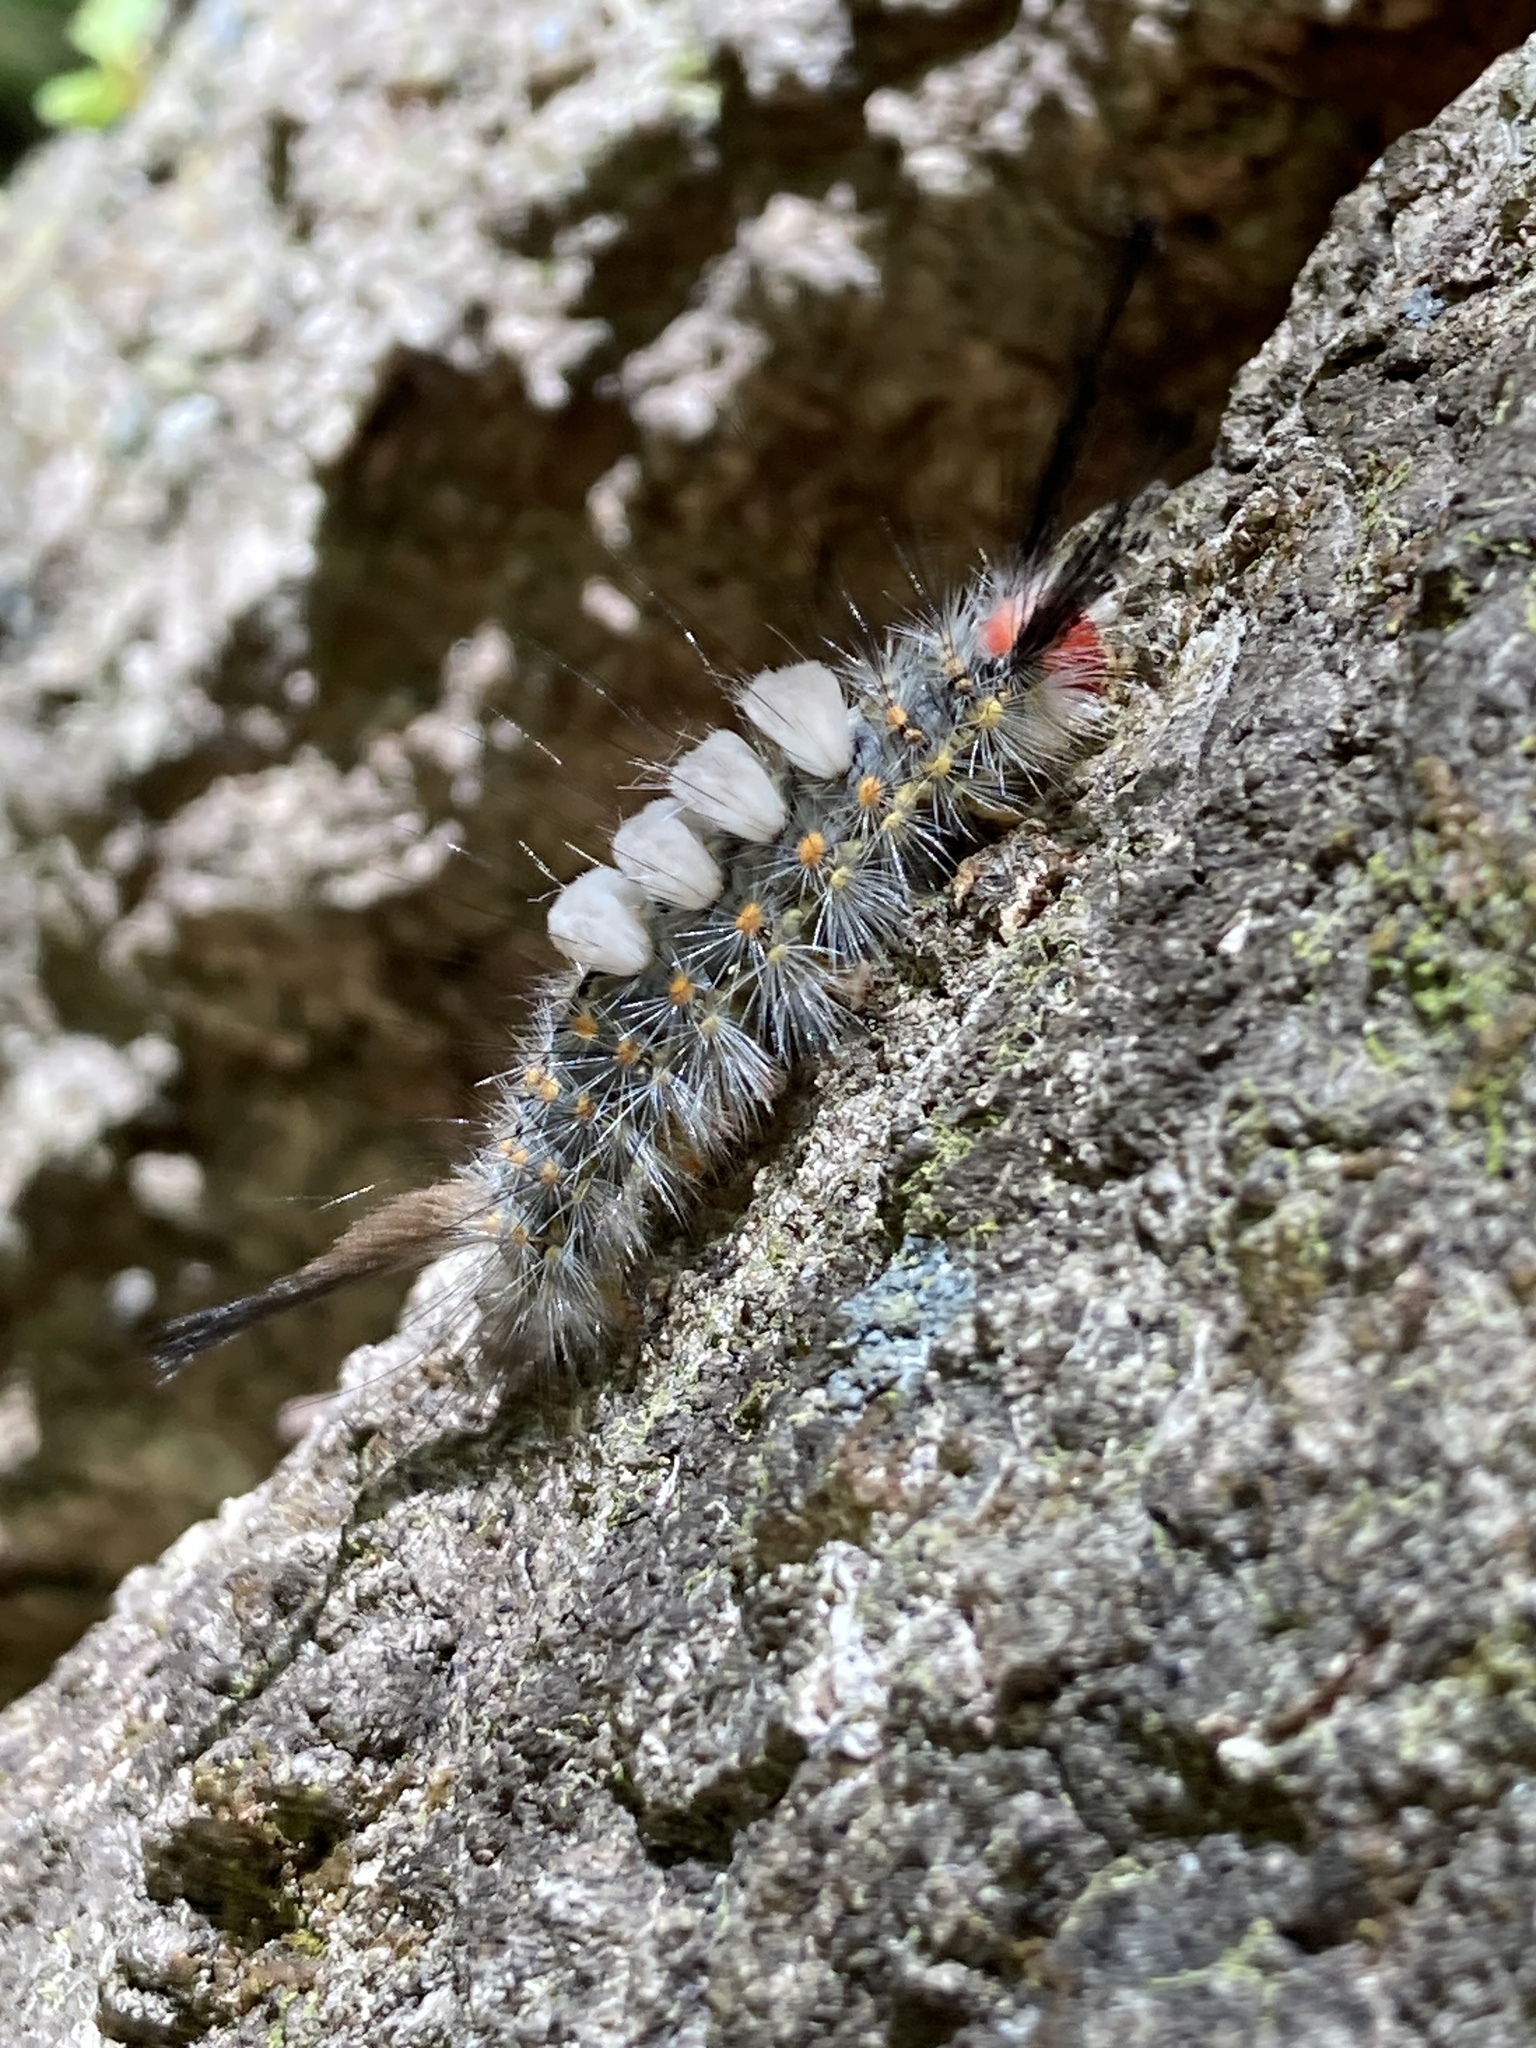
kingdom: Animalia
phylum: Arthropoda
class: Insecta
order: Lepidoptera
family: Erebidae
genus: Orgyia
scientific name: Orgyia detrita
